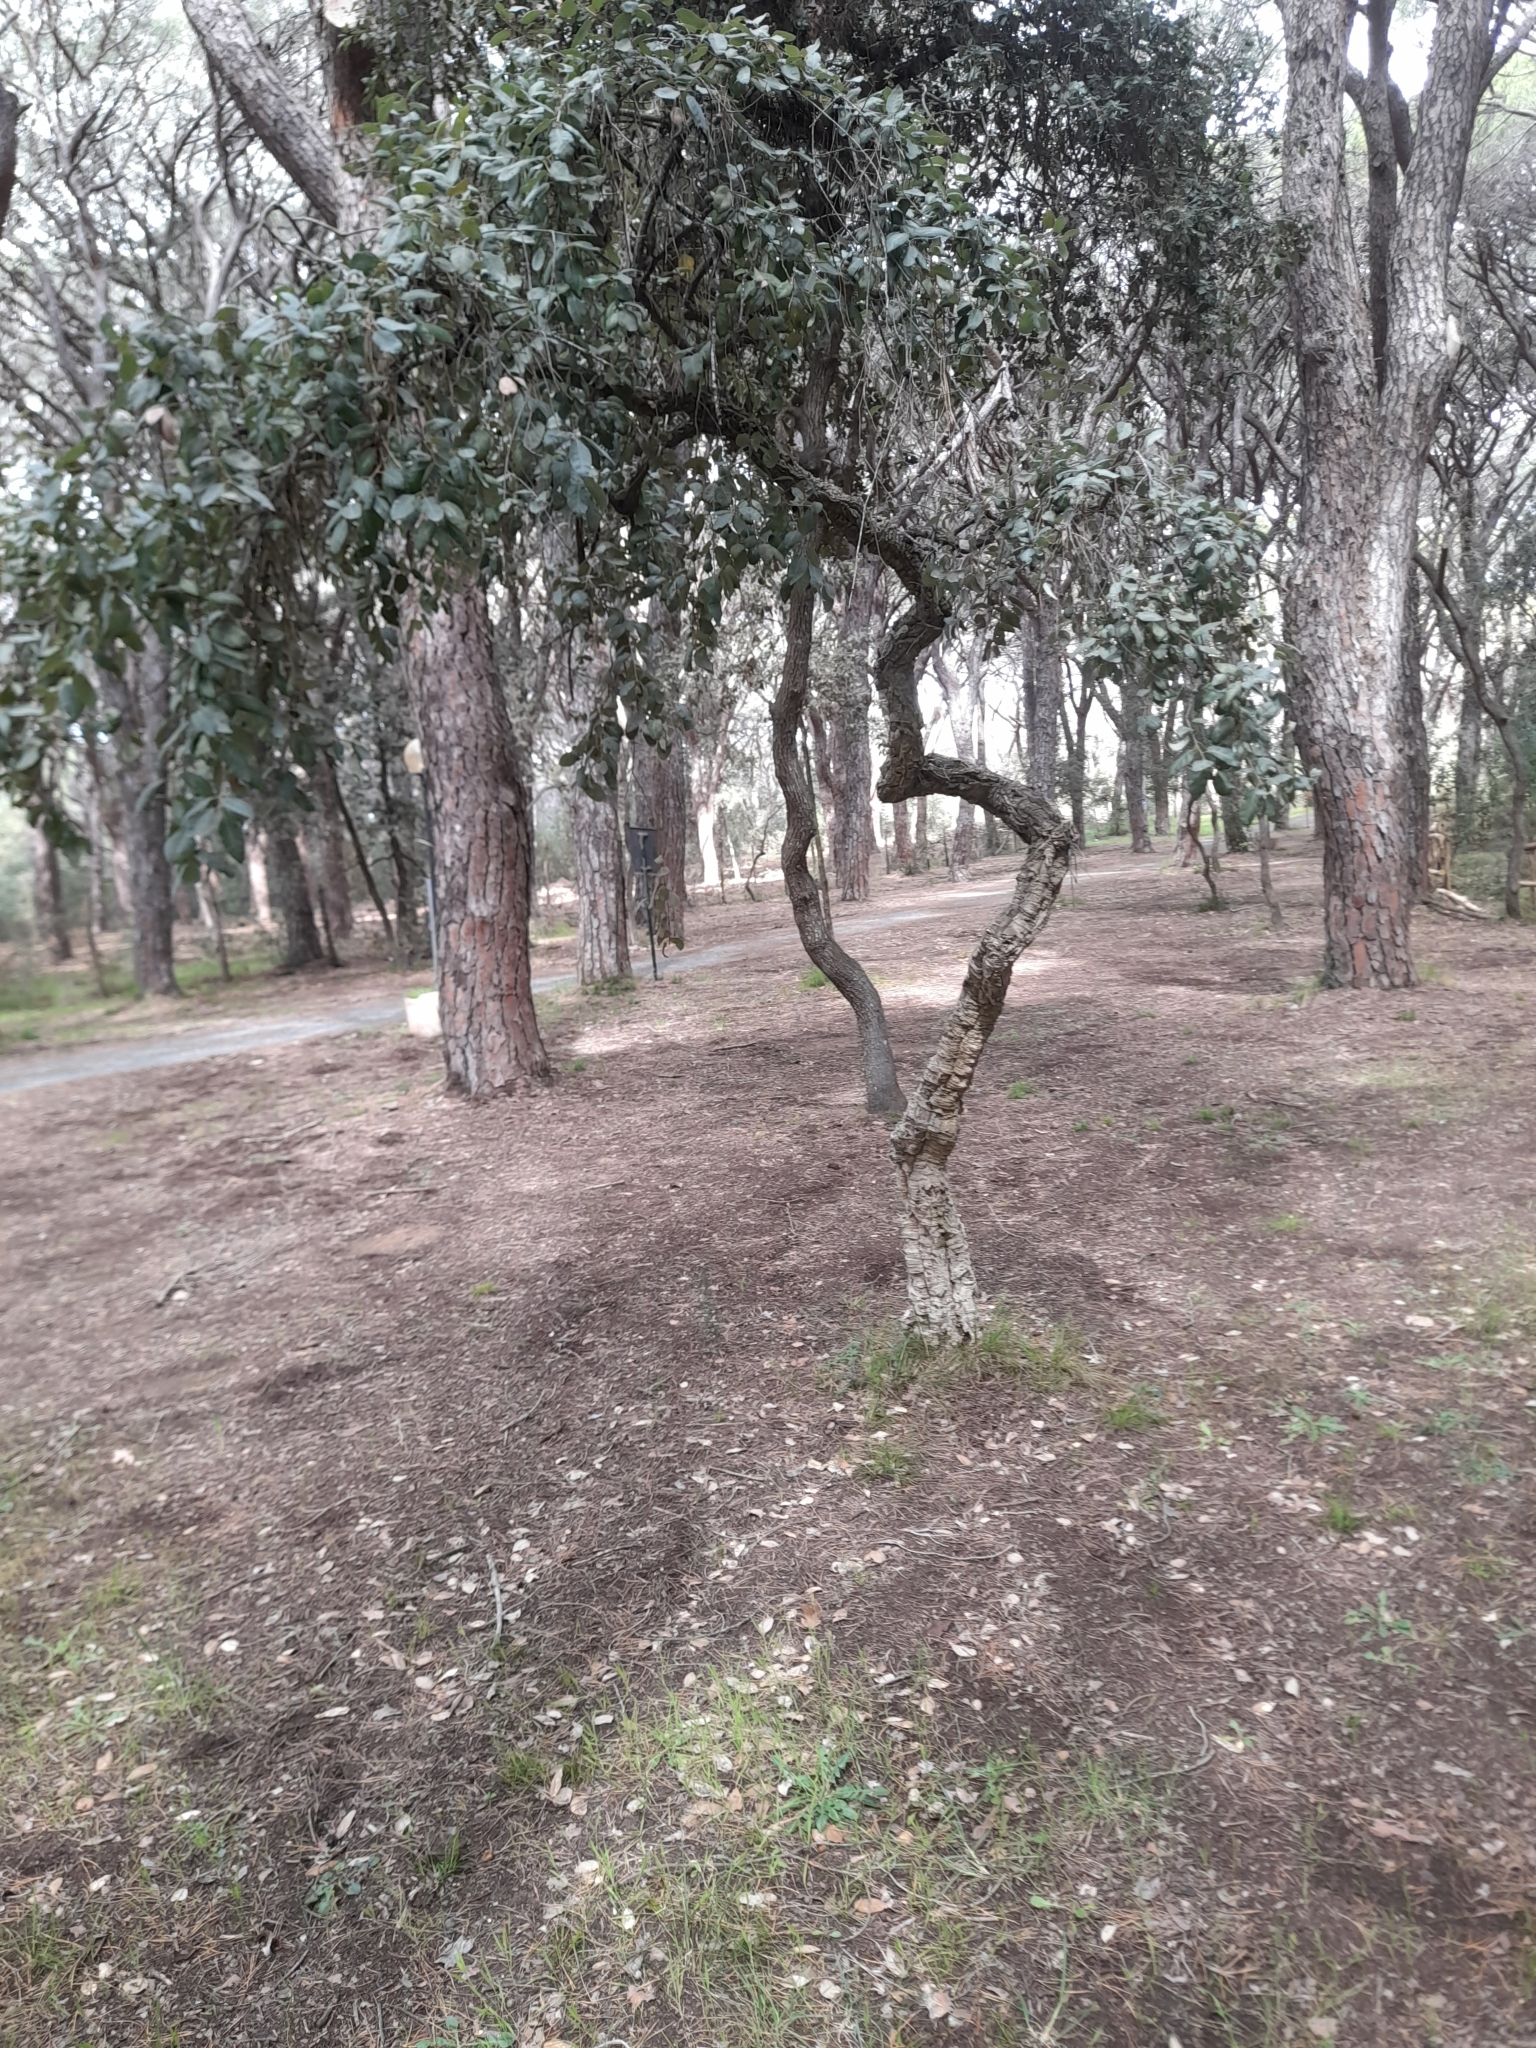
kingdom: Plantae
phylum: Tracheophyta
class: Magnoliopsida
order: Fagales
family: Fagaceae
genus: Quercus
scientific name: Quercus suber
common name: Cork oak
